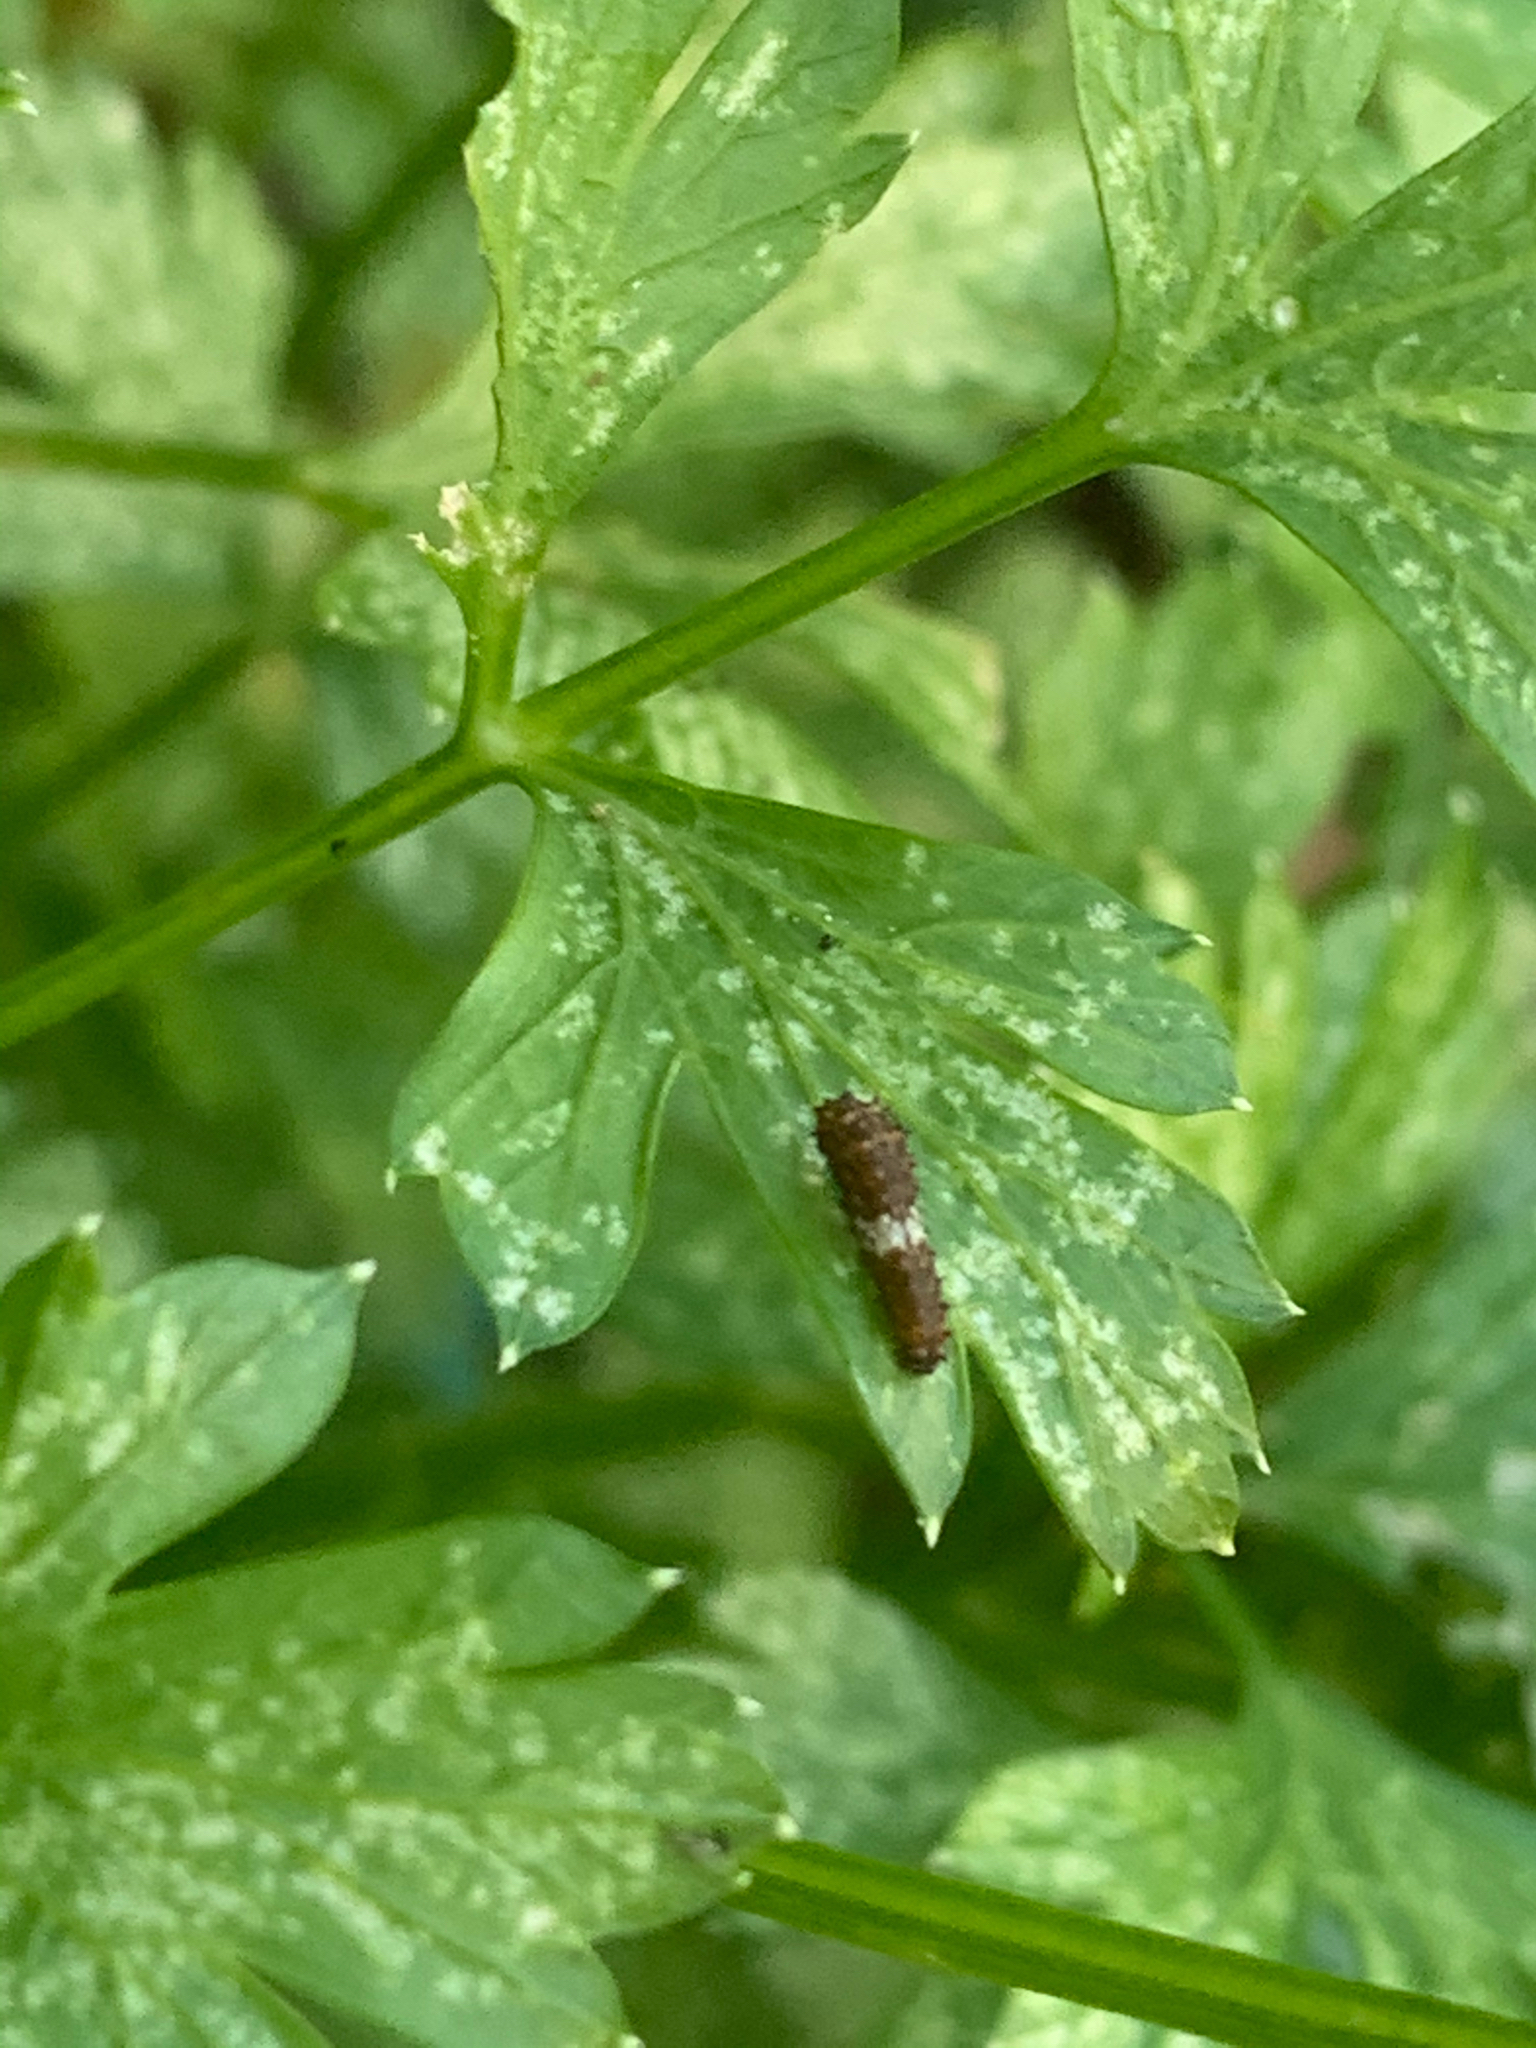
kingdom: Animalia
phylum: Arthropoda
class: Insecta
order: Lepidoptera
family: Papilionidae
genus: Papilio
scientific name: Papilio polyxenes
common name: Black swallowtail
